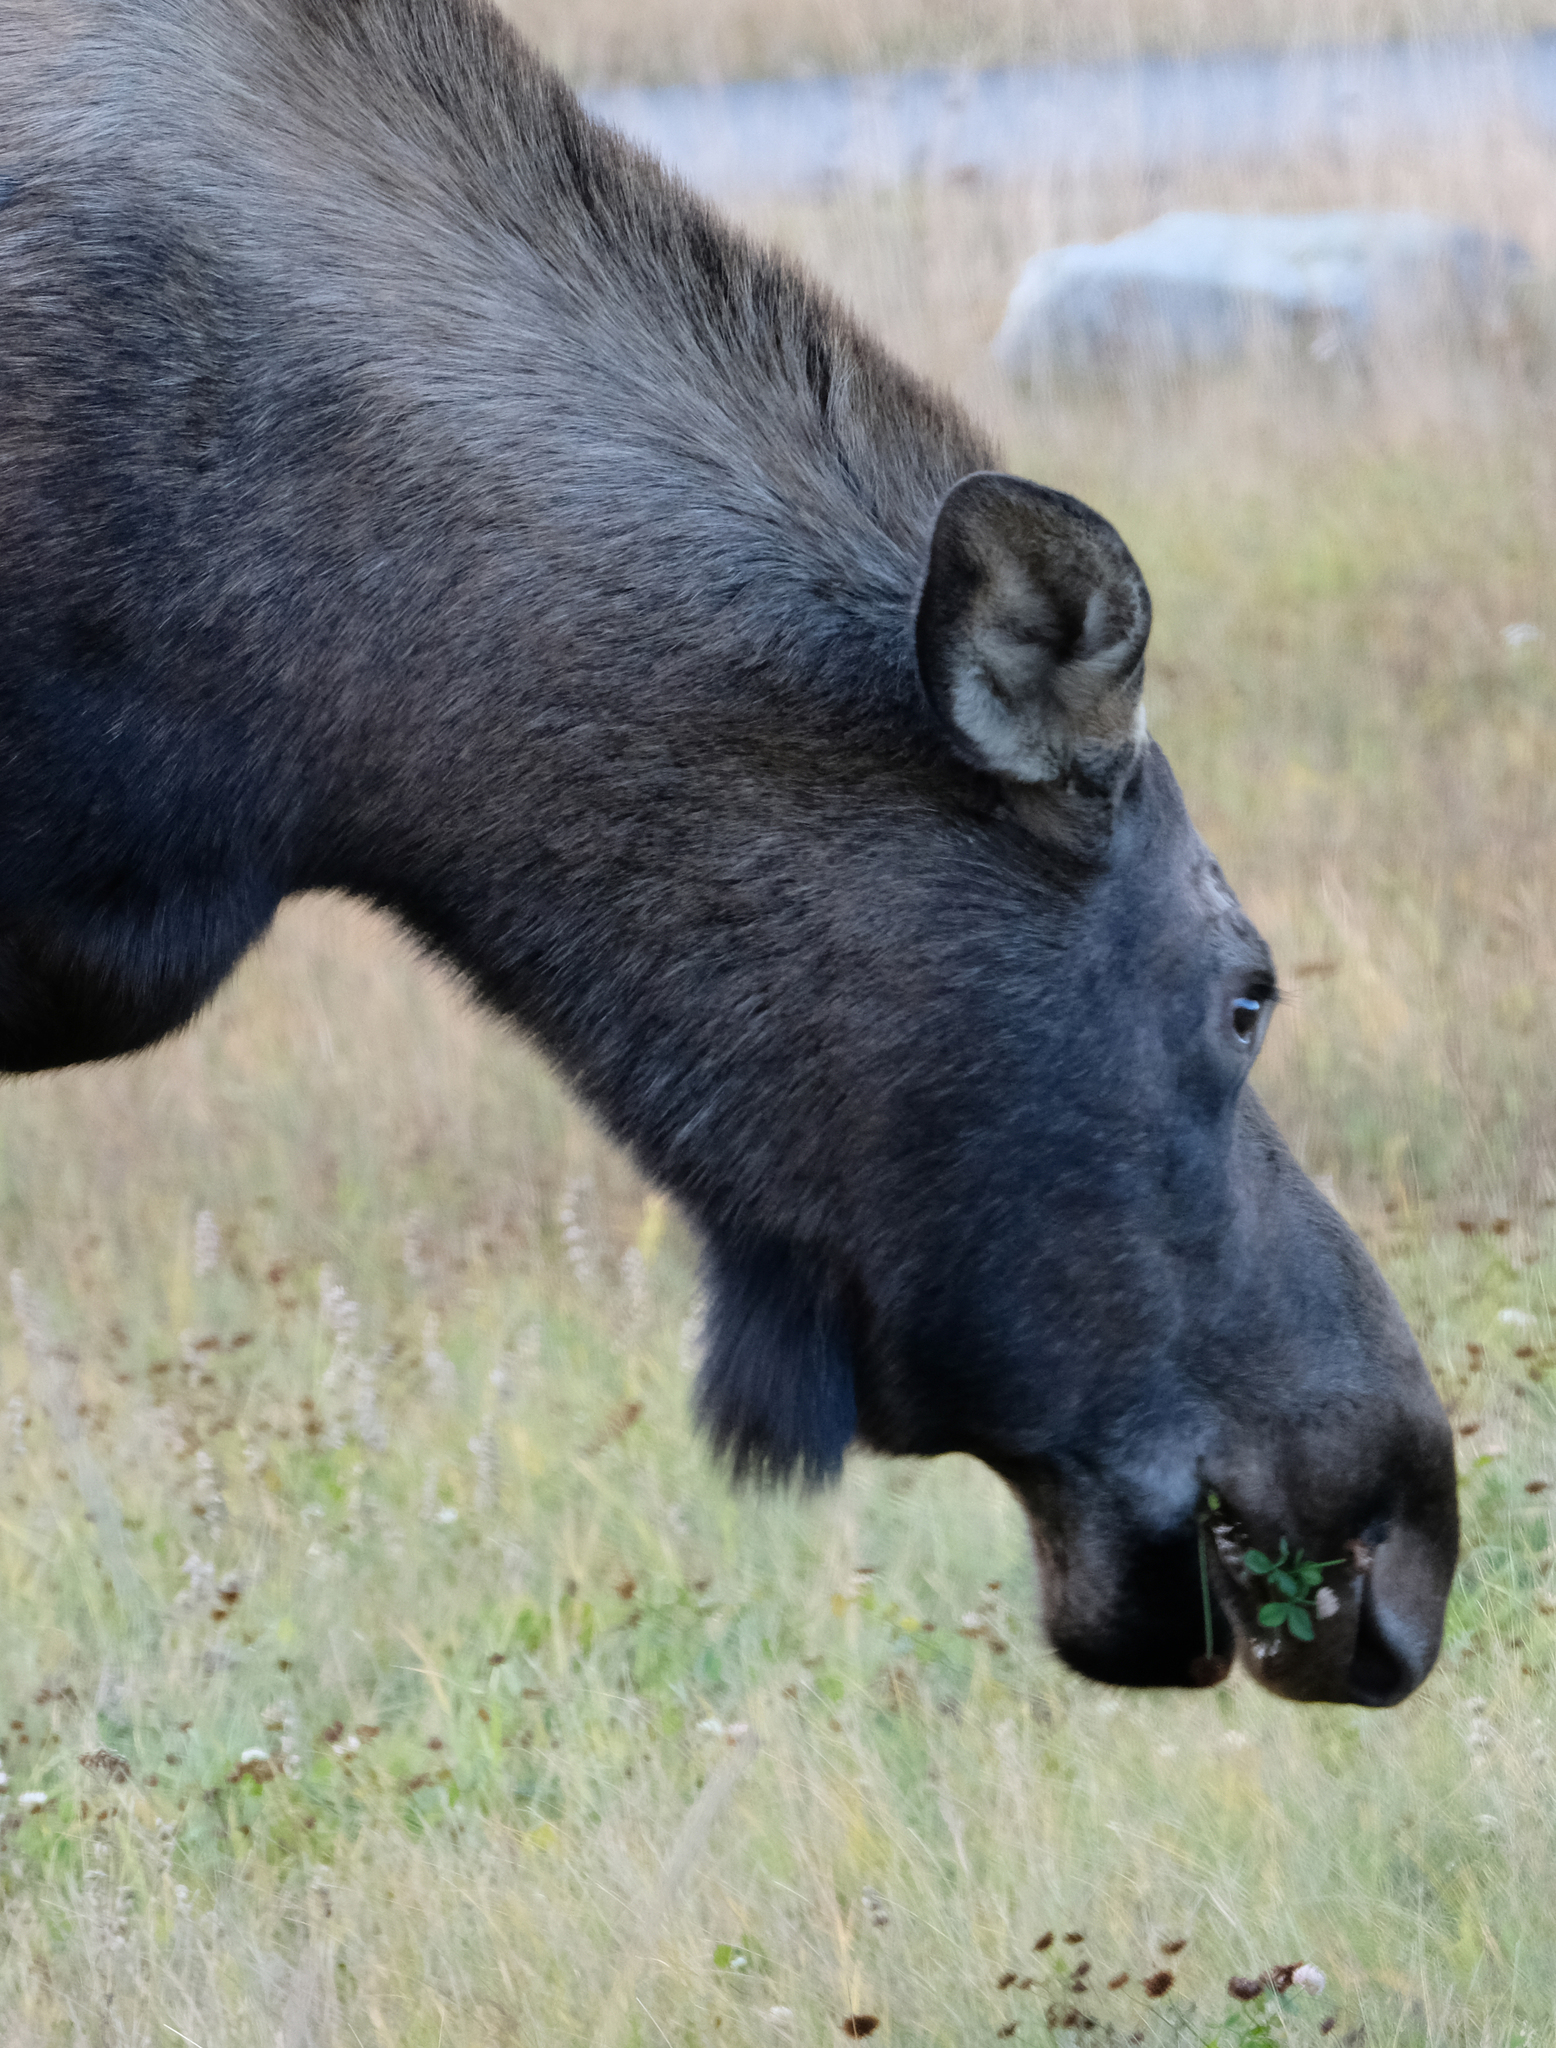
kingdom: Animalia
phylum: Chordata
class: Mammalia
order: Artiodactyla
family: Cervidae
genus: Alces
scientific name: Alces alces
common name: Moose
